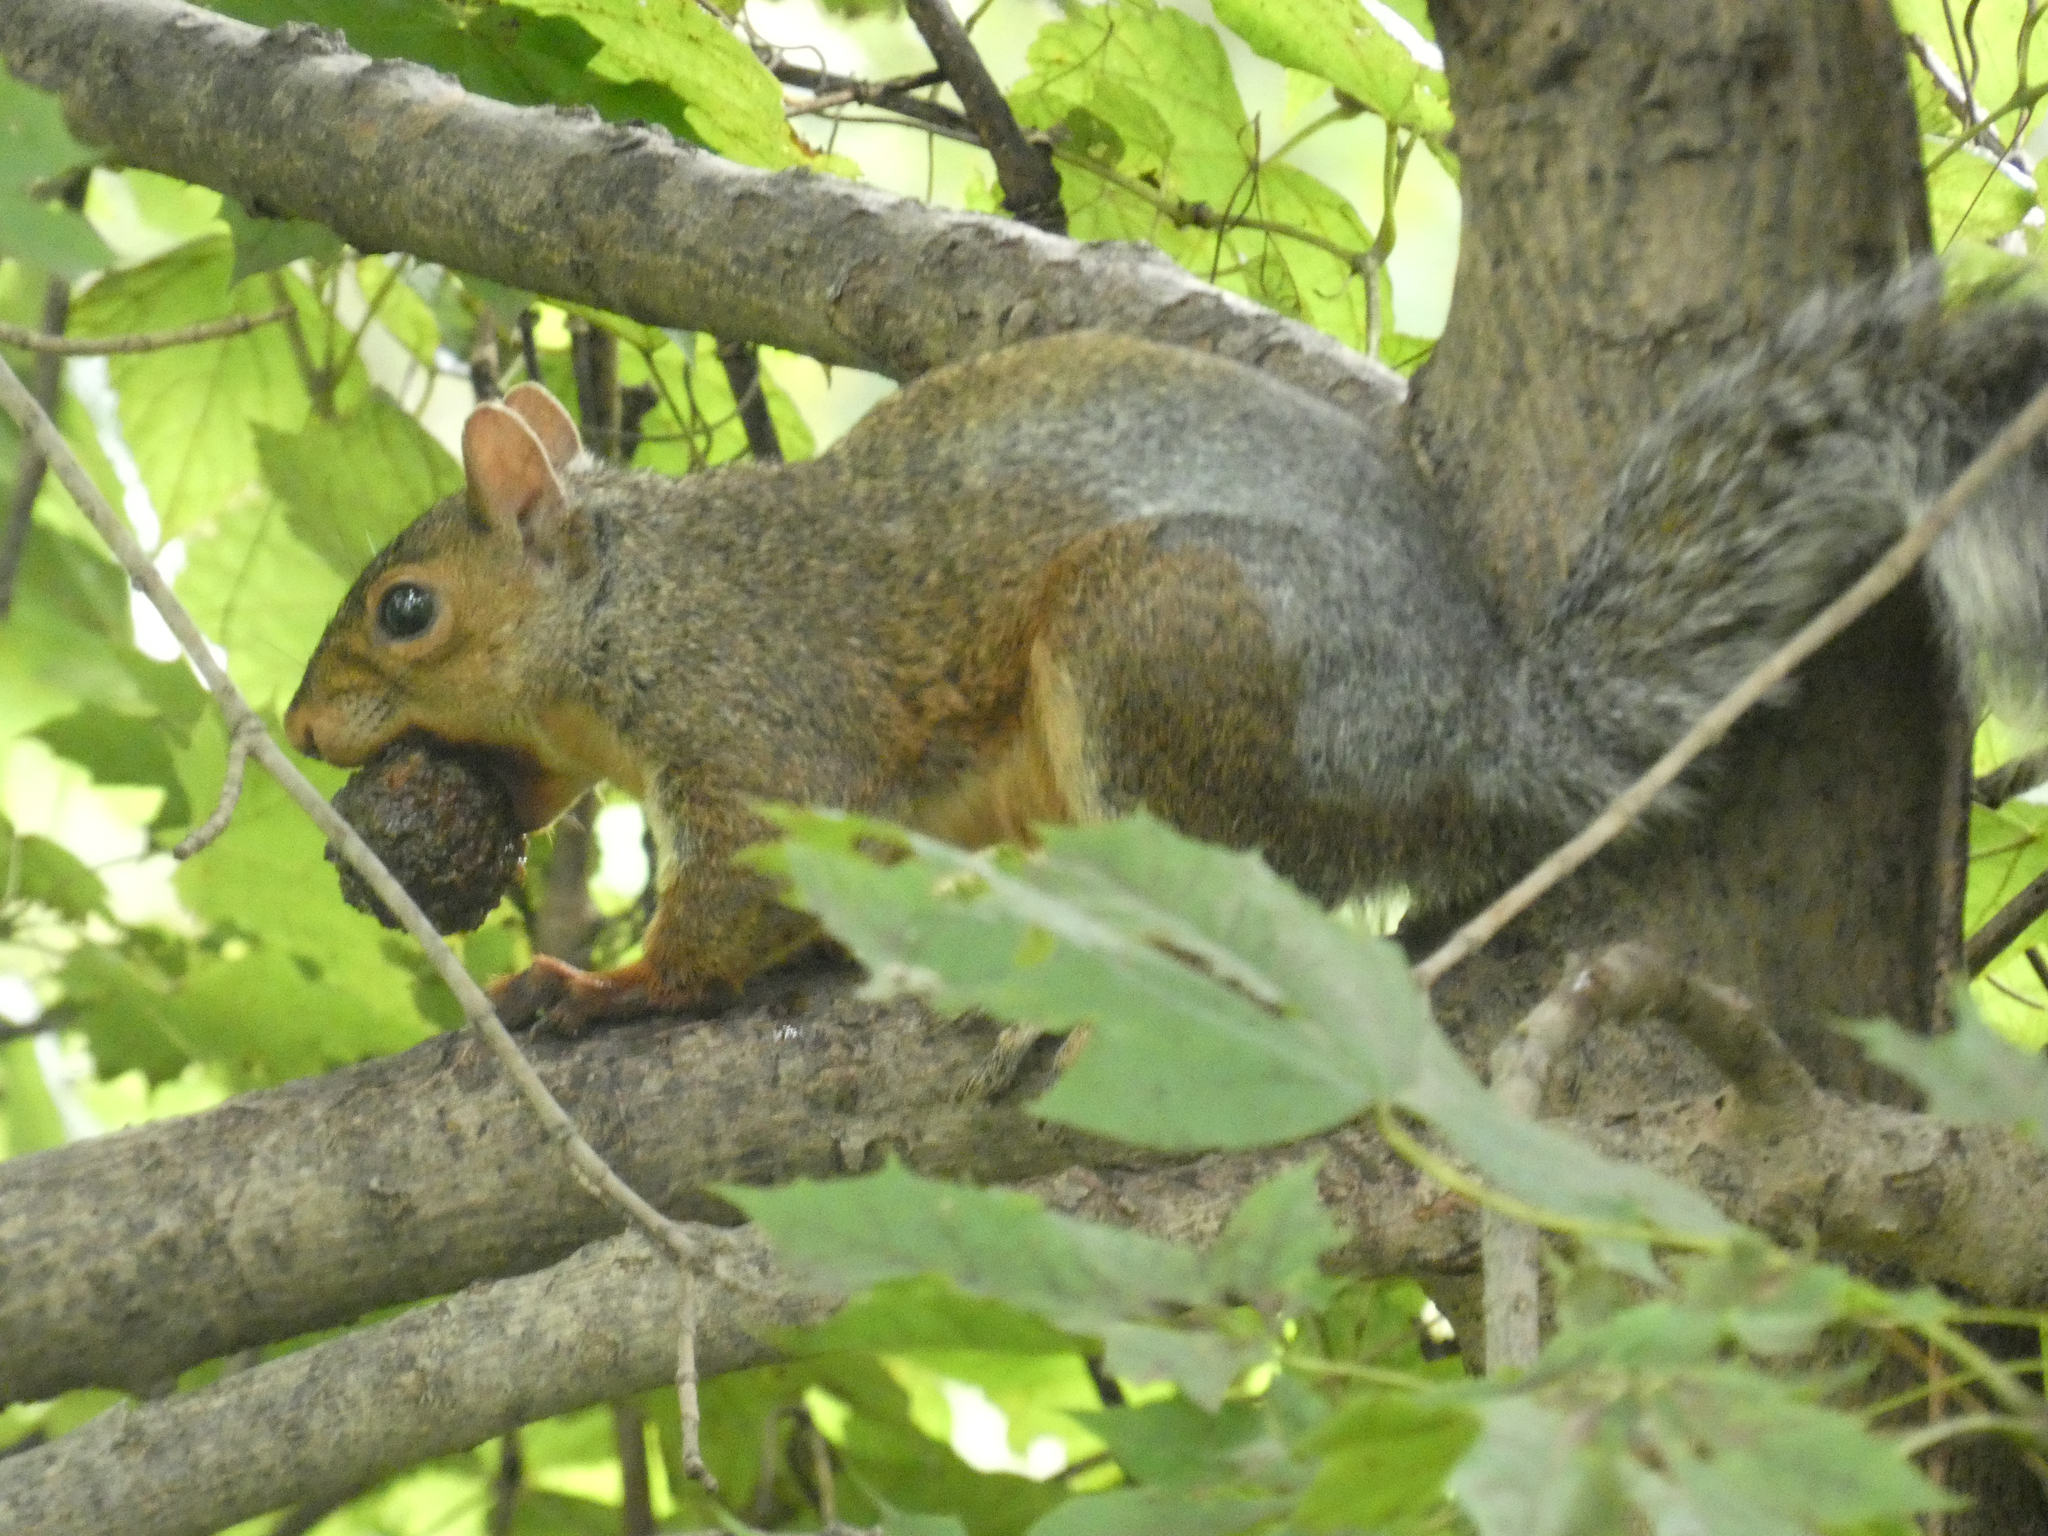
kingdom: Animalia
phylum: Chordata
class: Mammalia
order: Rodentia
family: Sciuridae
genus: Sciurus
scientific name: Sciurus carolinensis
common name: Eastern gray squirrel
